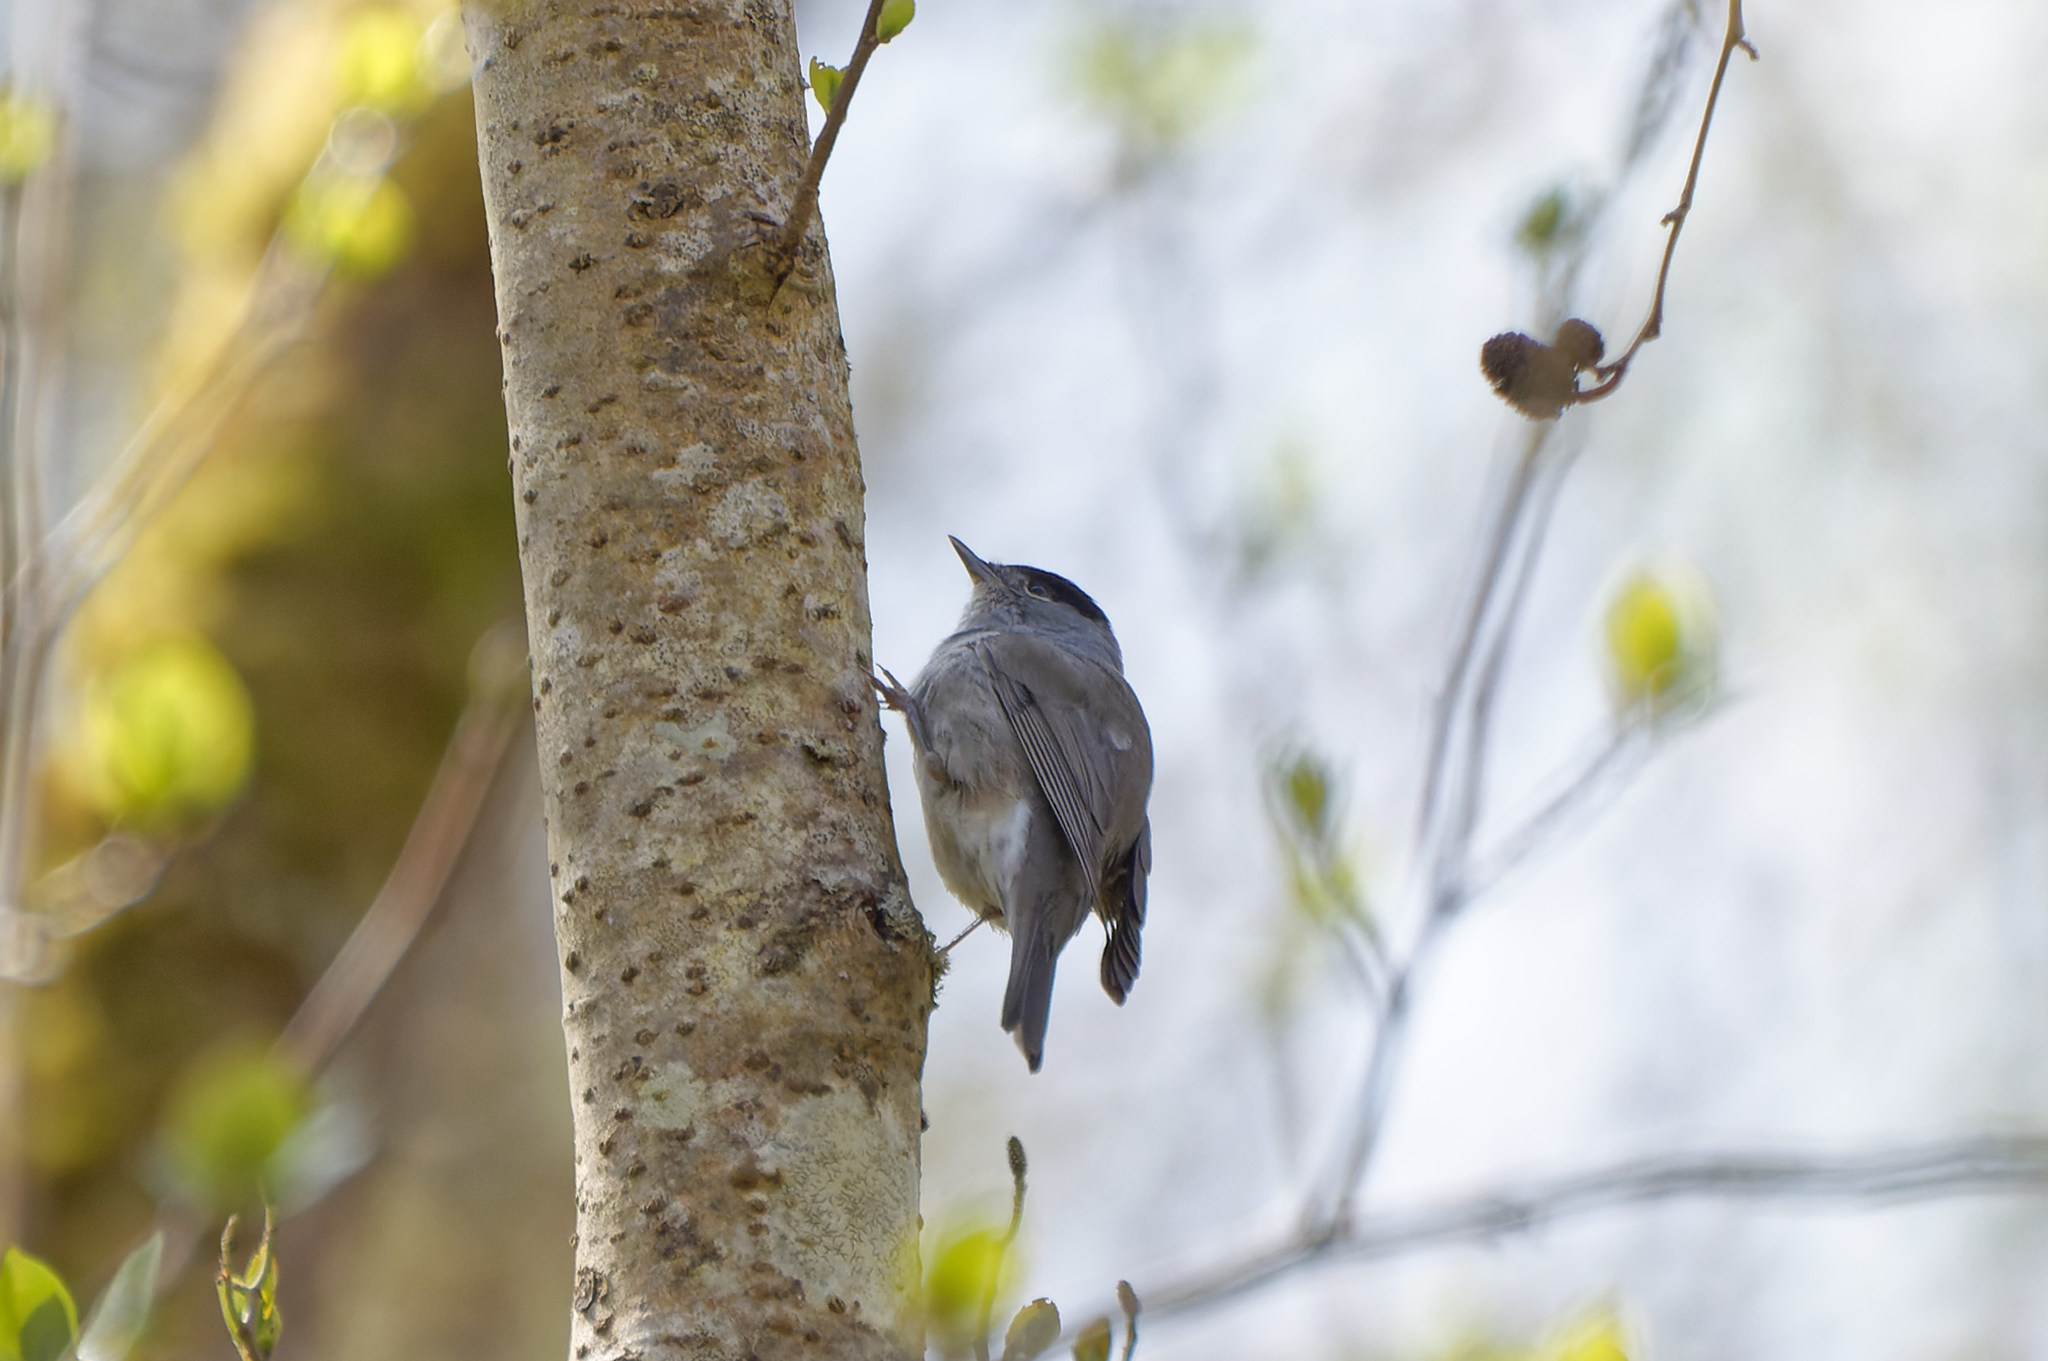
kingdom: Animalia
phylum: Chordata
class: Aves
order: Passeriformes
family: Sylviidae
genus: Sylvia
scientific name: Sylvia atricapilla
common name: Eurasian blackcap
